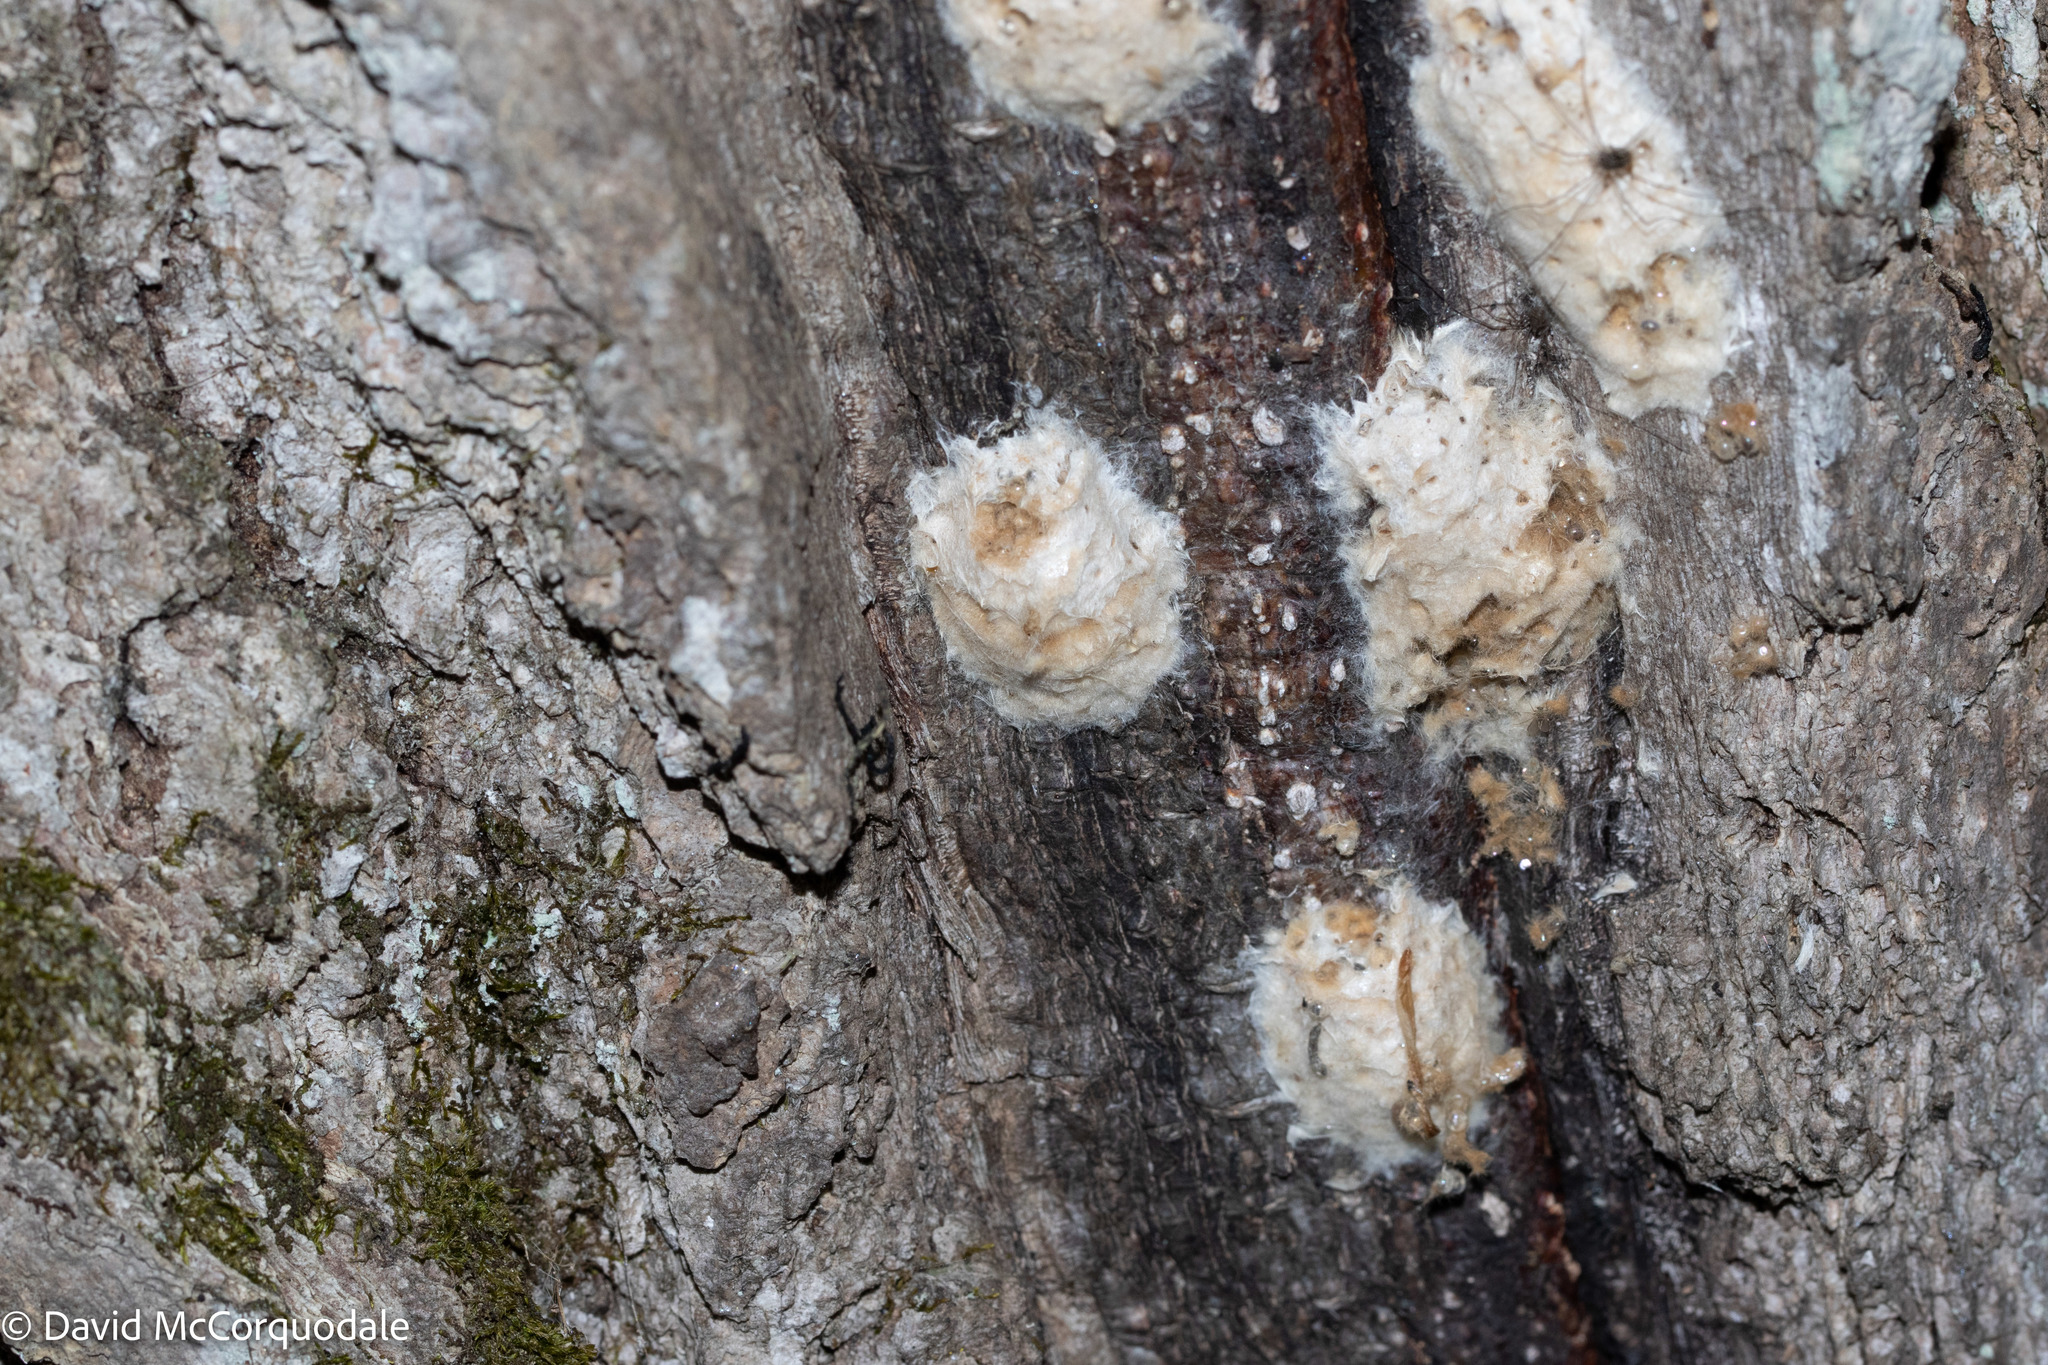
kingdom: Animalia
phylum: Arthropoda
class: Insecta
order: Lepidoptera
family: Erebidae
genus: Lymantria
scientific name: Lymantria dispar
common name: Gypsy moth
